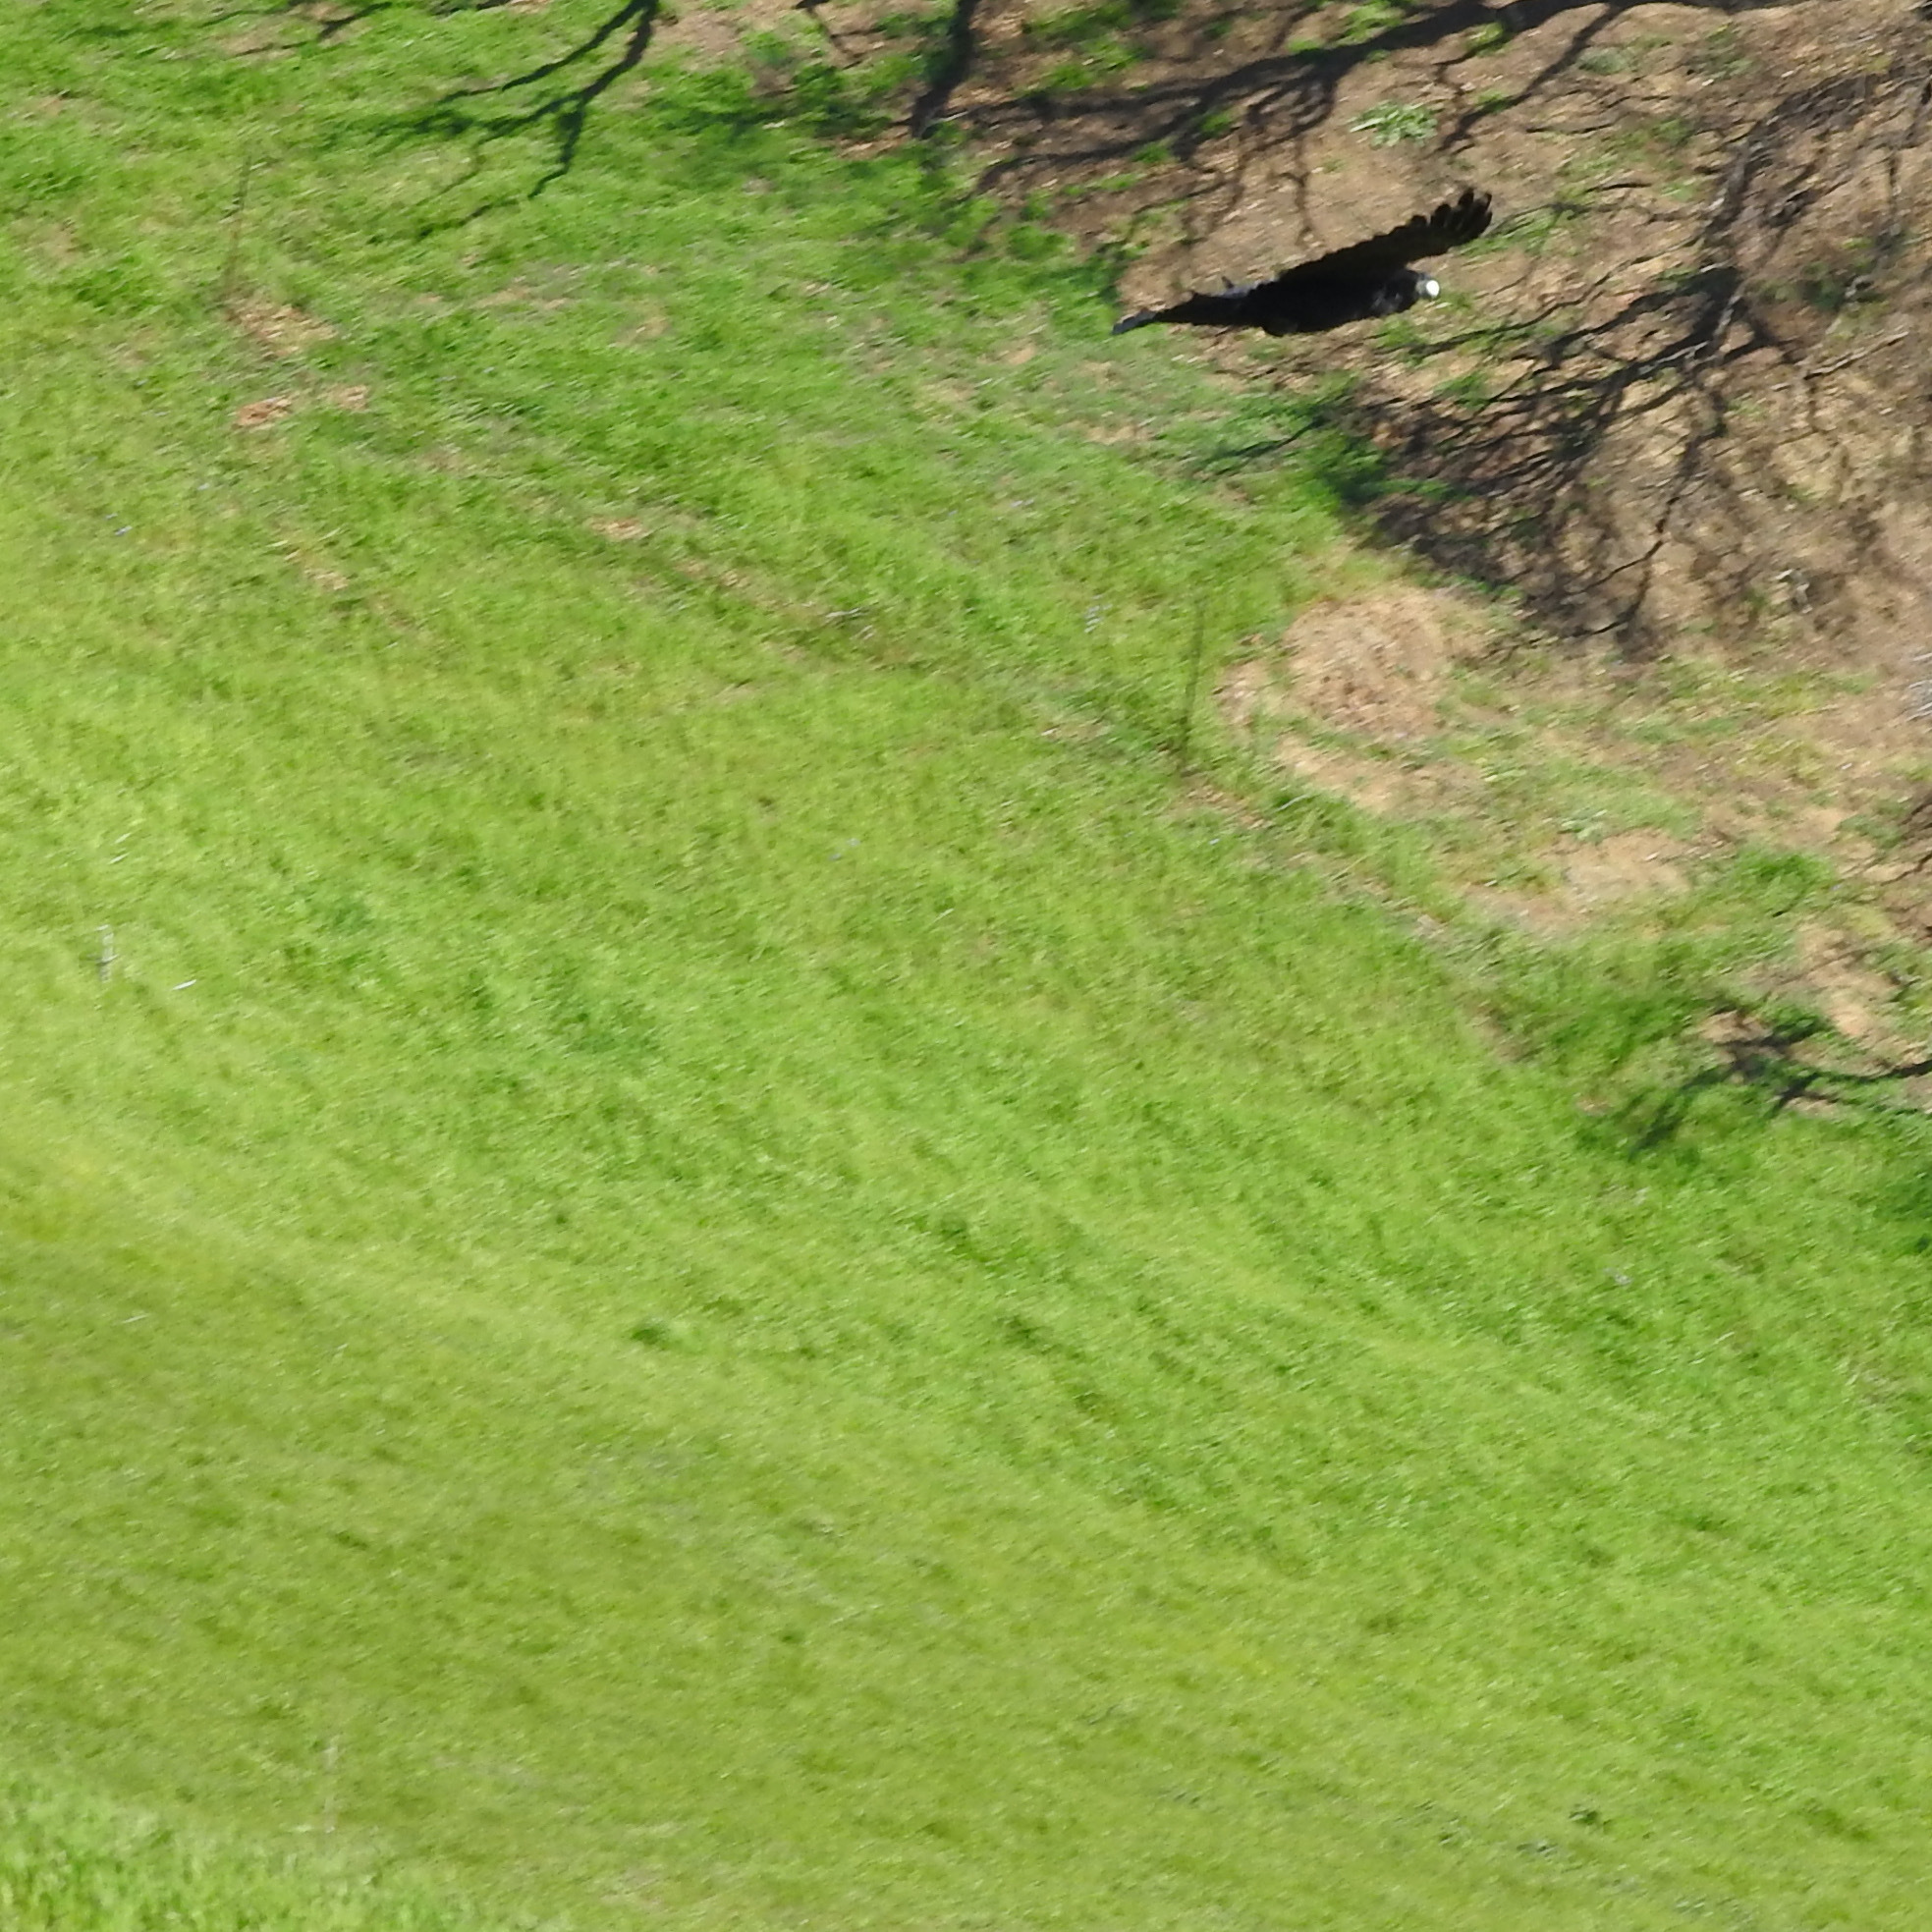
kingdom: Animalia
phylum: Chordata
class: Aves
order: Passeriformes
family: Corvidae
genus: Corvus
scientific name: Corvus corax
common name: Common raven
